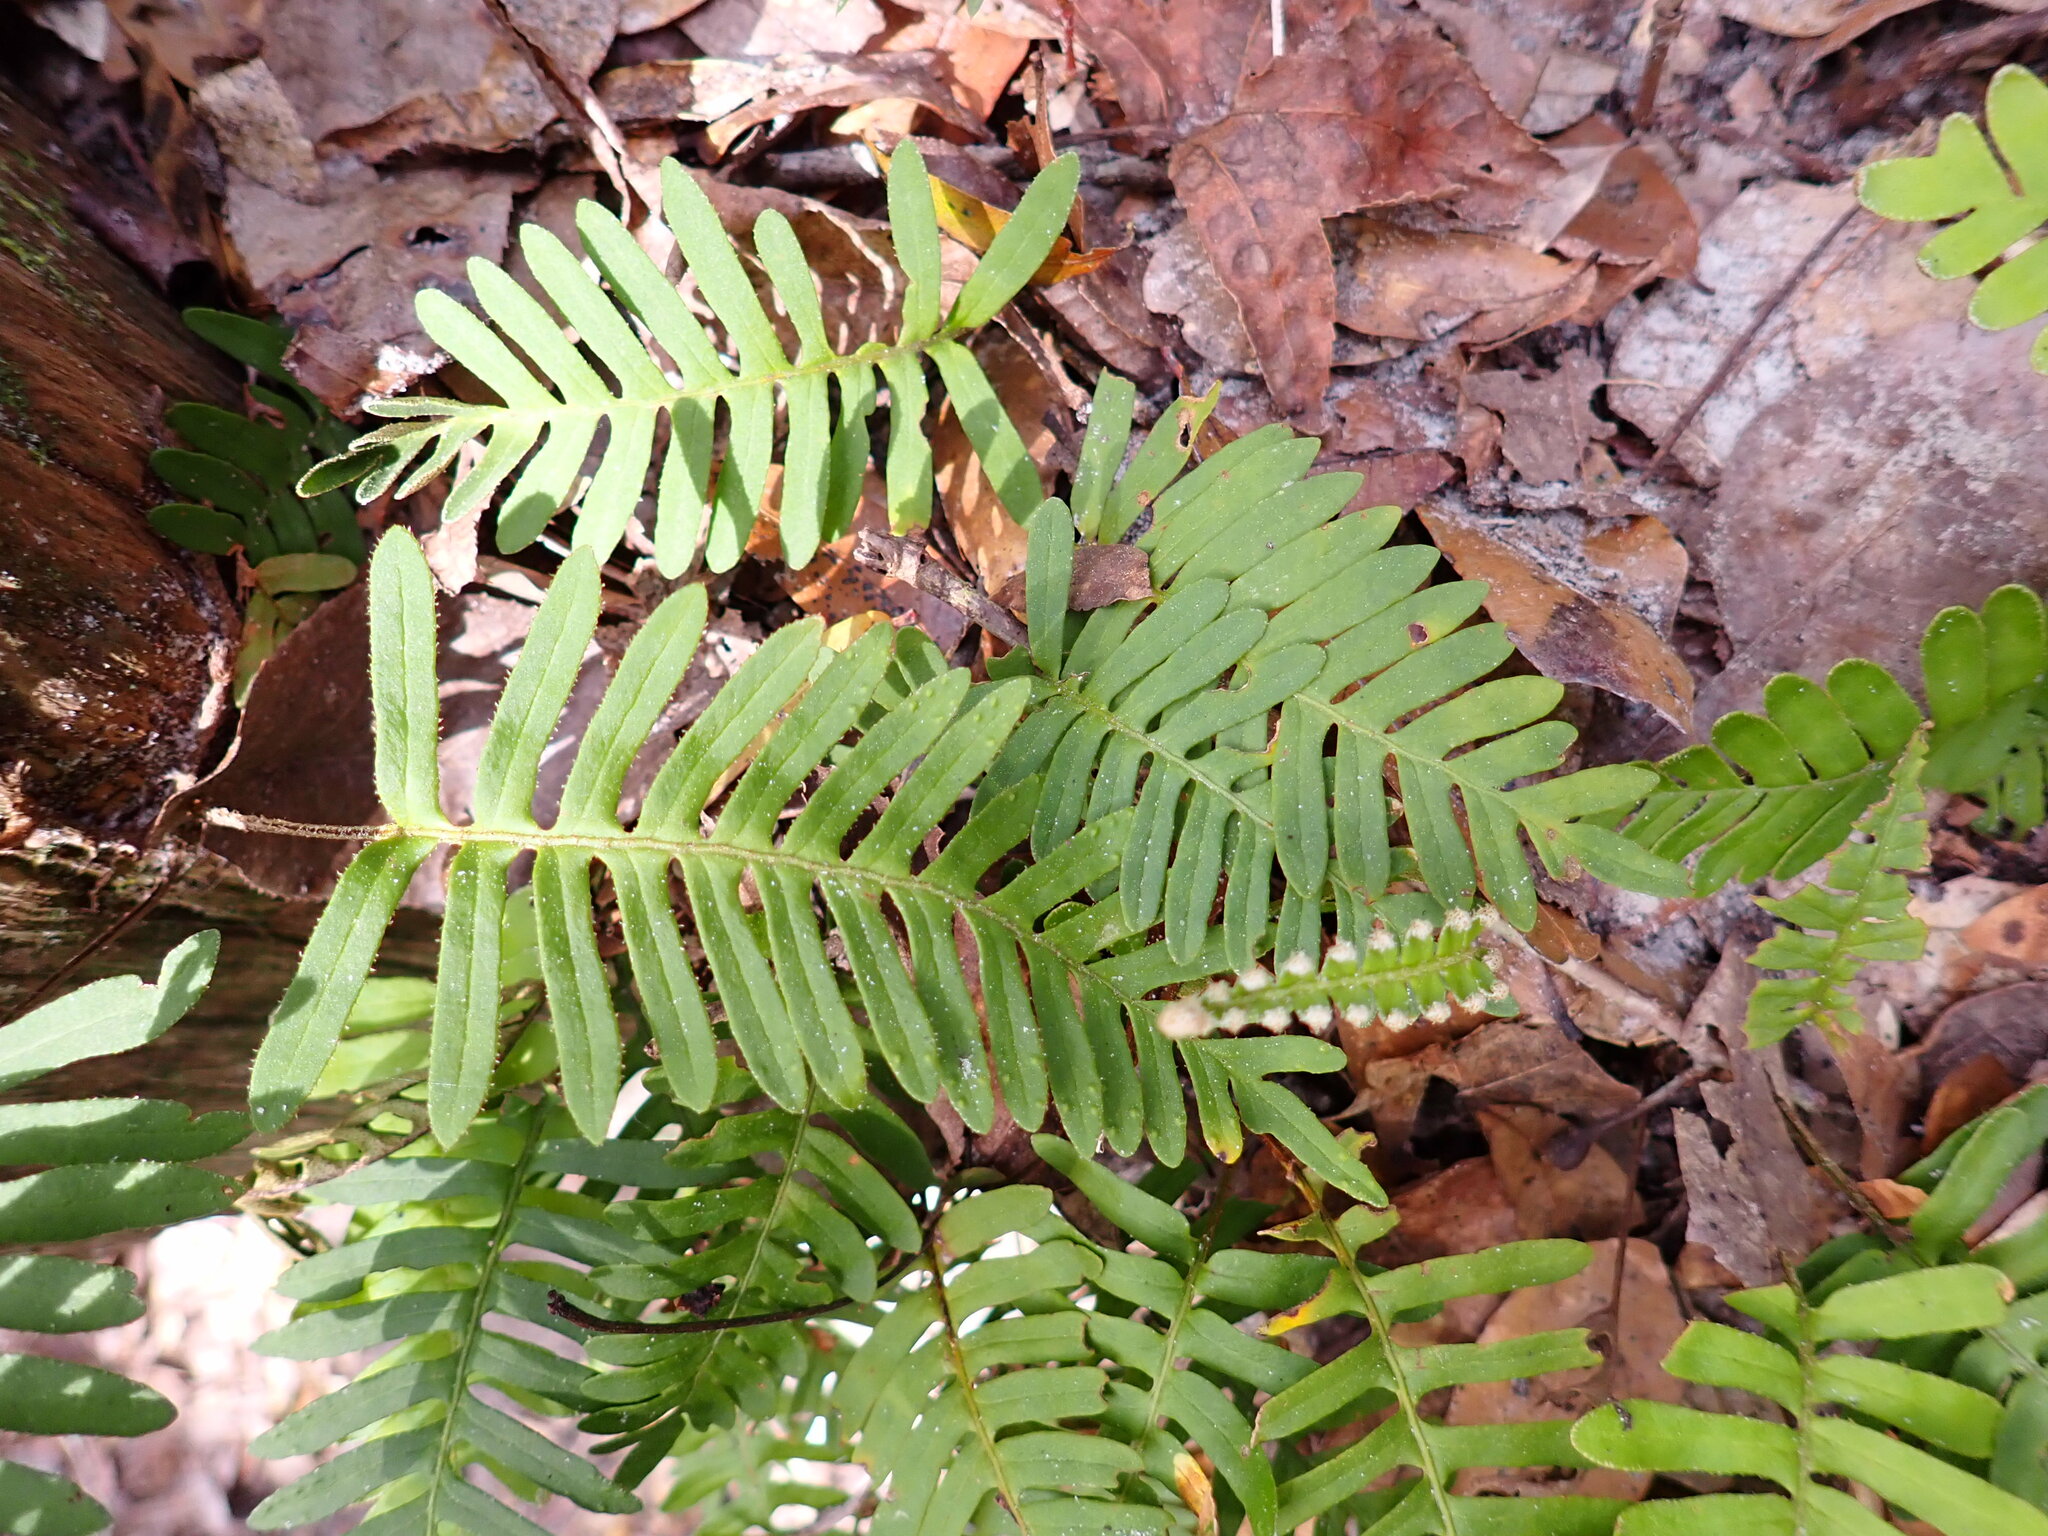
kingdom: Plantae
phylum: Tracheophyta
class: Polypodiopsida
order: Polypodiales
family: Polypodiaceae
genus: Pleopeltis
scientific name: Pleopeltis michauxiana
